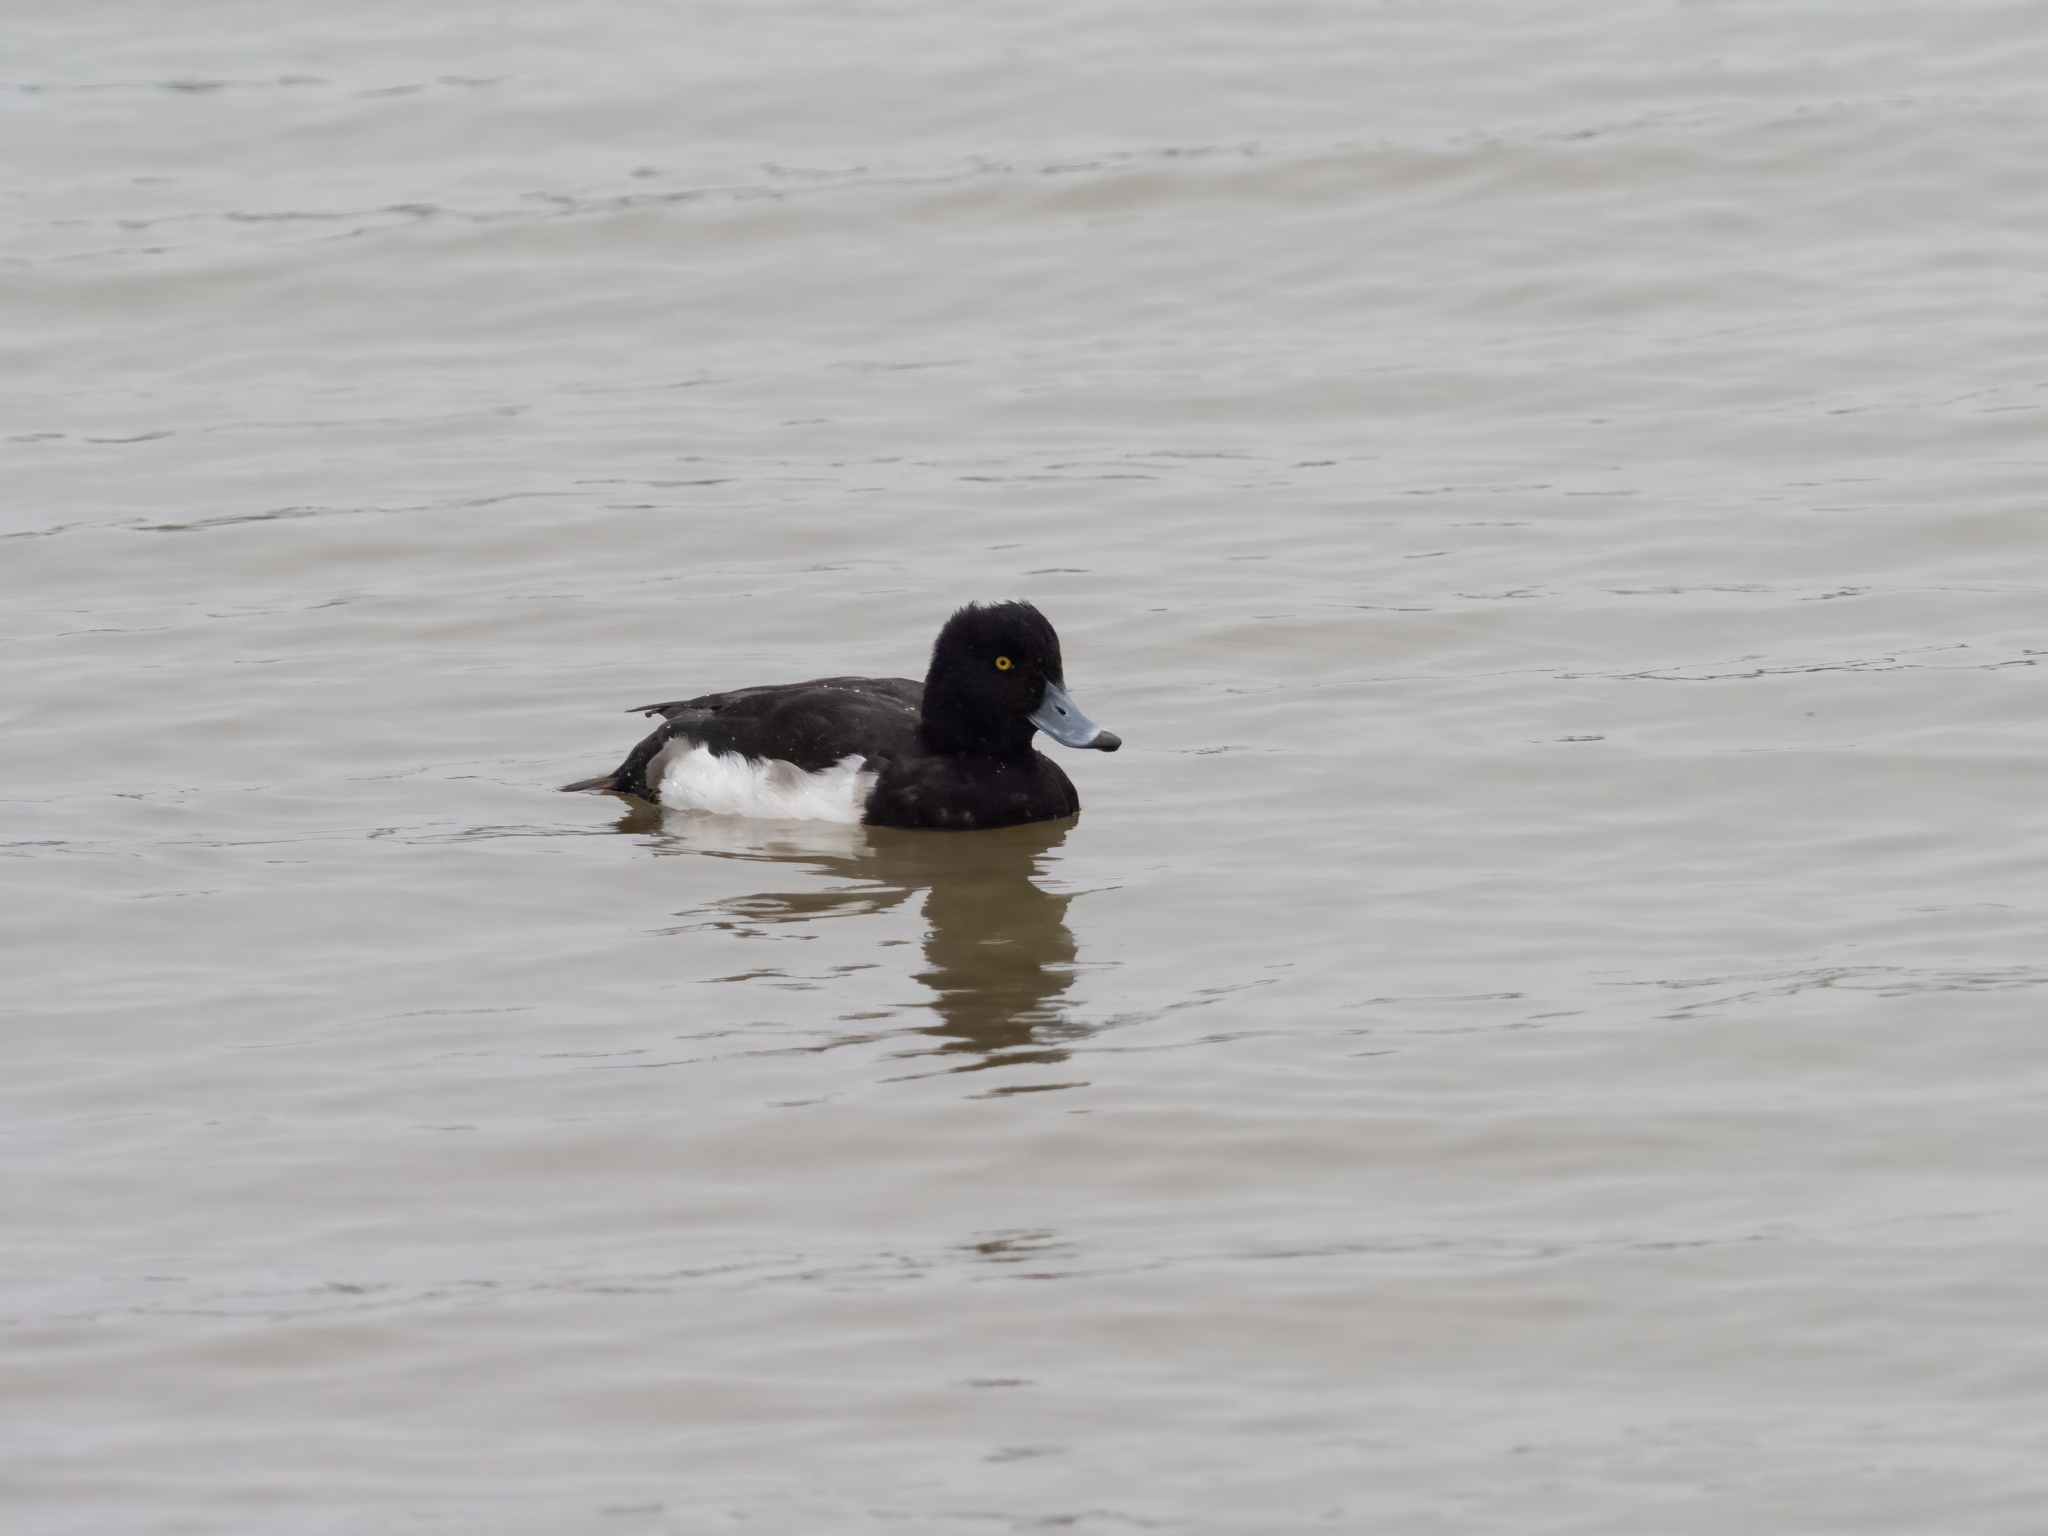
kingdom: Animalia
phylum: Chordata
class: Aves
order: Anseriformes
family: Anatidae
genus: Aythya
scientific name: Aythya fuligula
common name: Tufted duck
